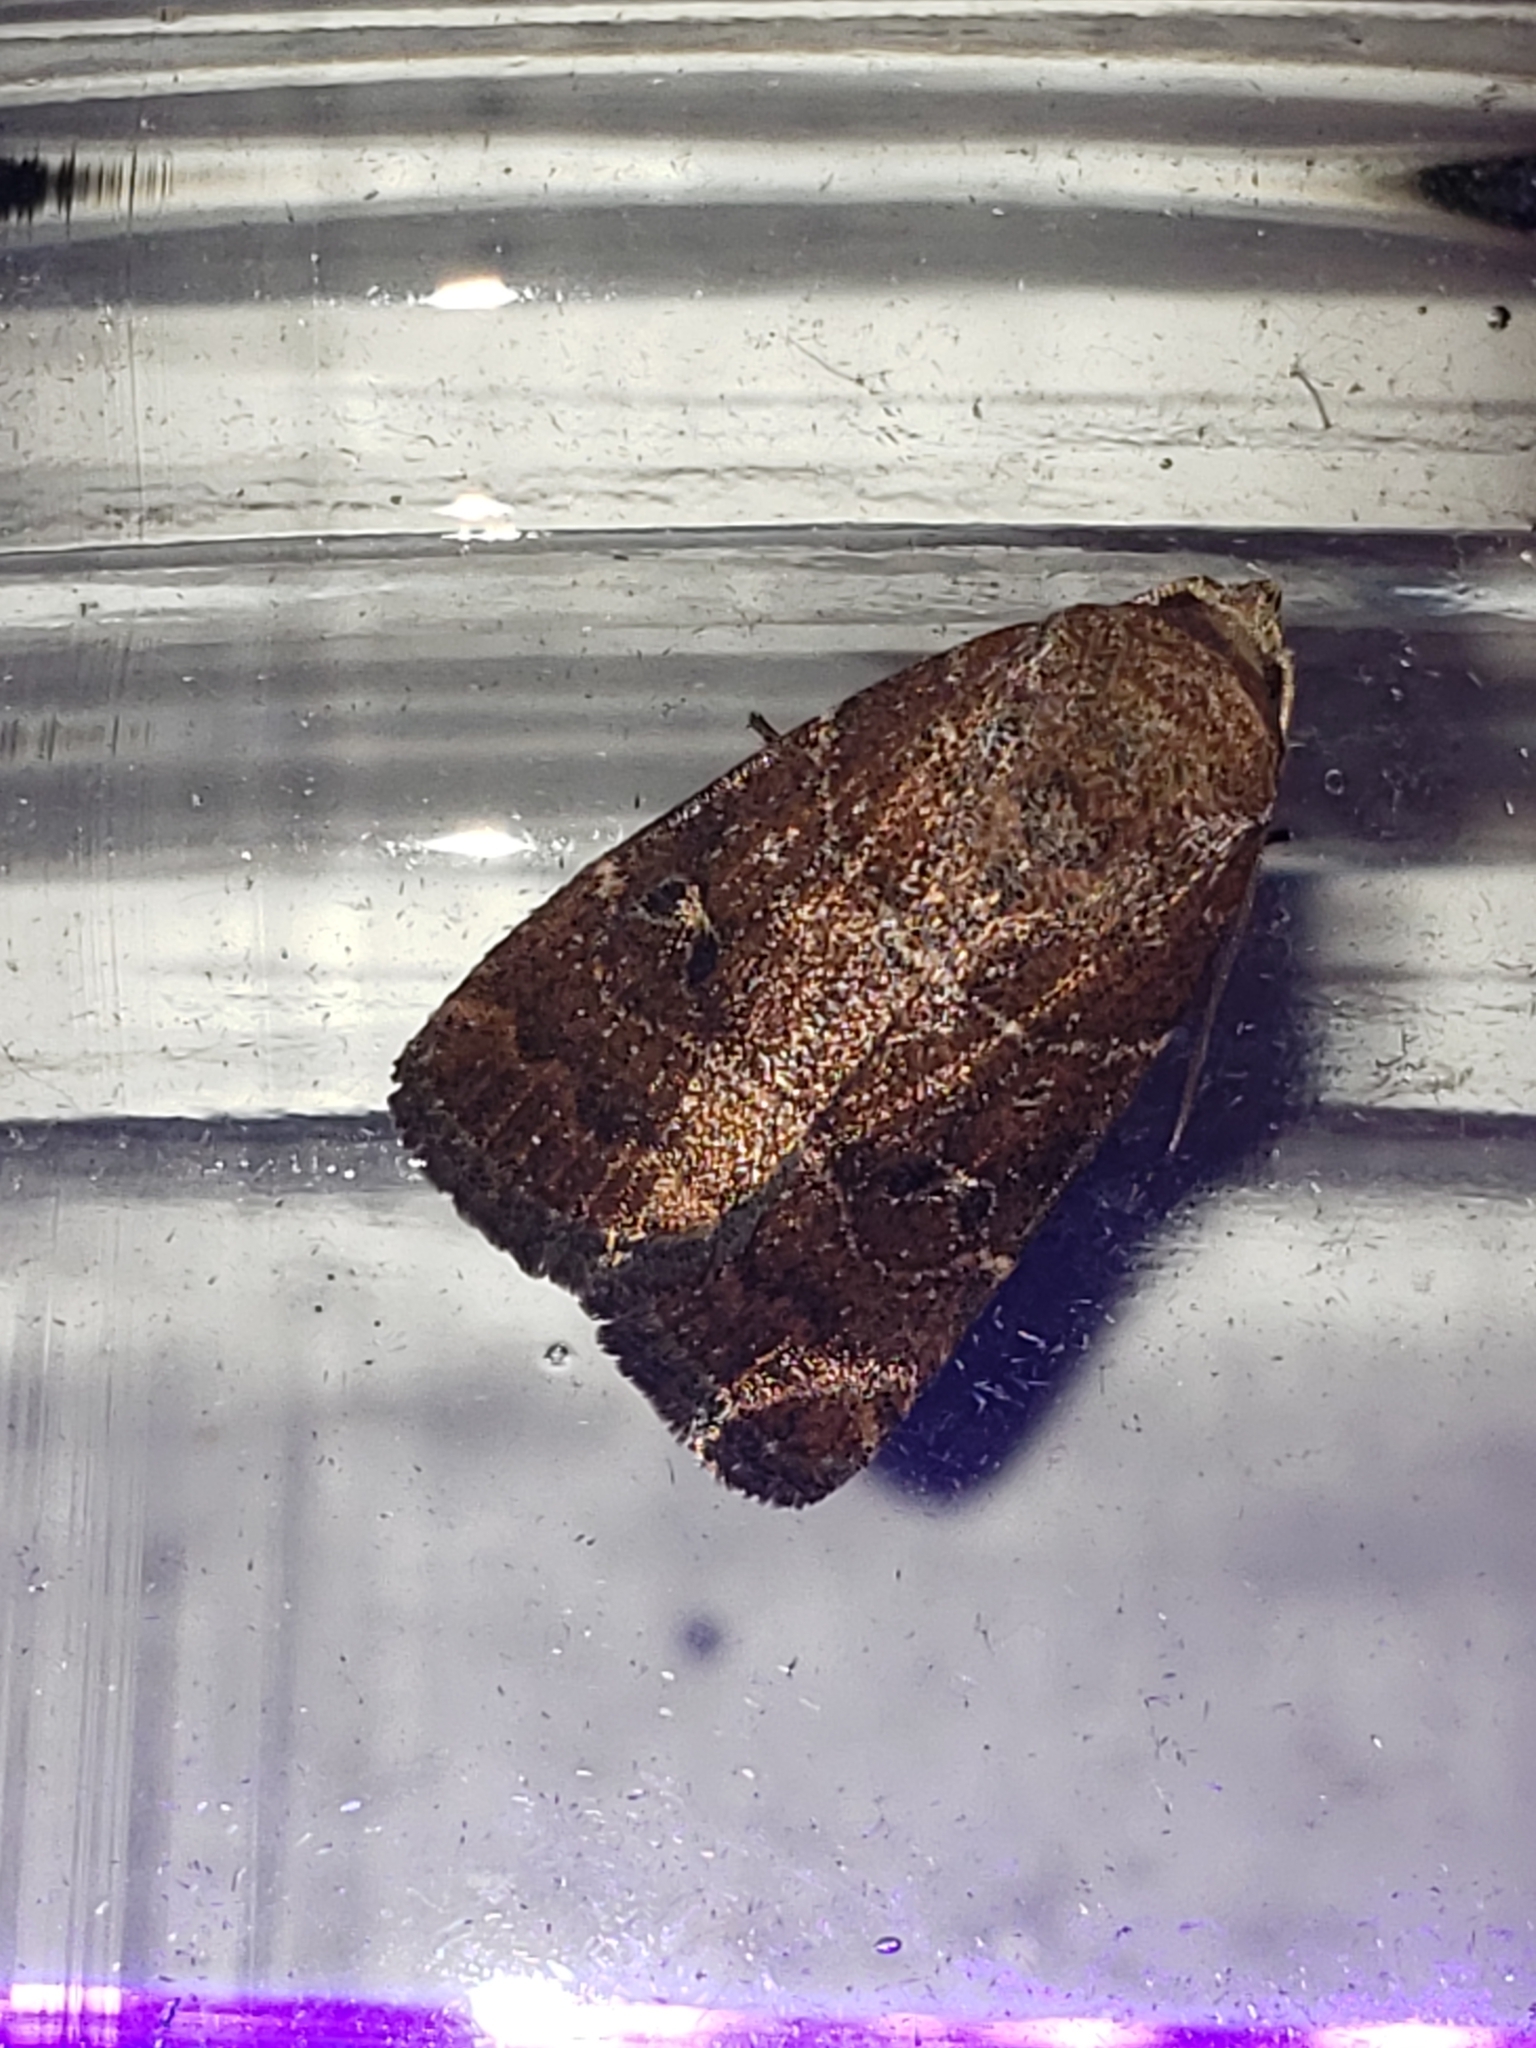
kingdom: Animalia
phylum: Arthropoda
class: Insecta
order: Lepidoptera
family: Noctuidae
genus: Elaphria
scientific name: Elaphria grata
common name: Grateful midget moth
